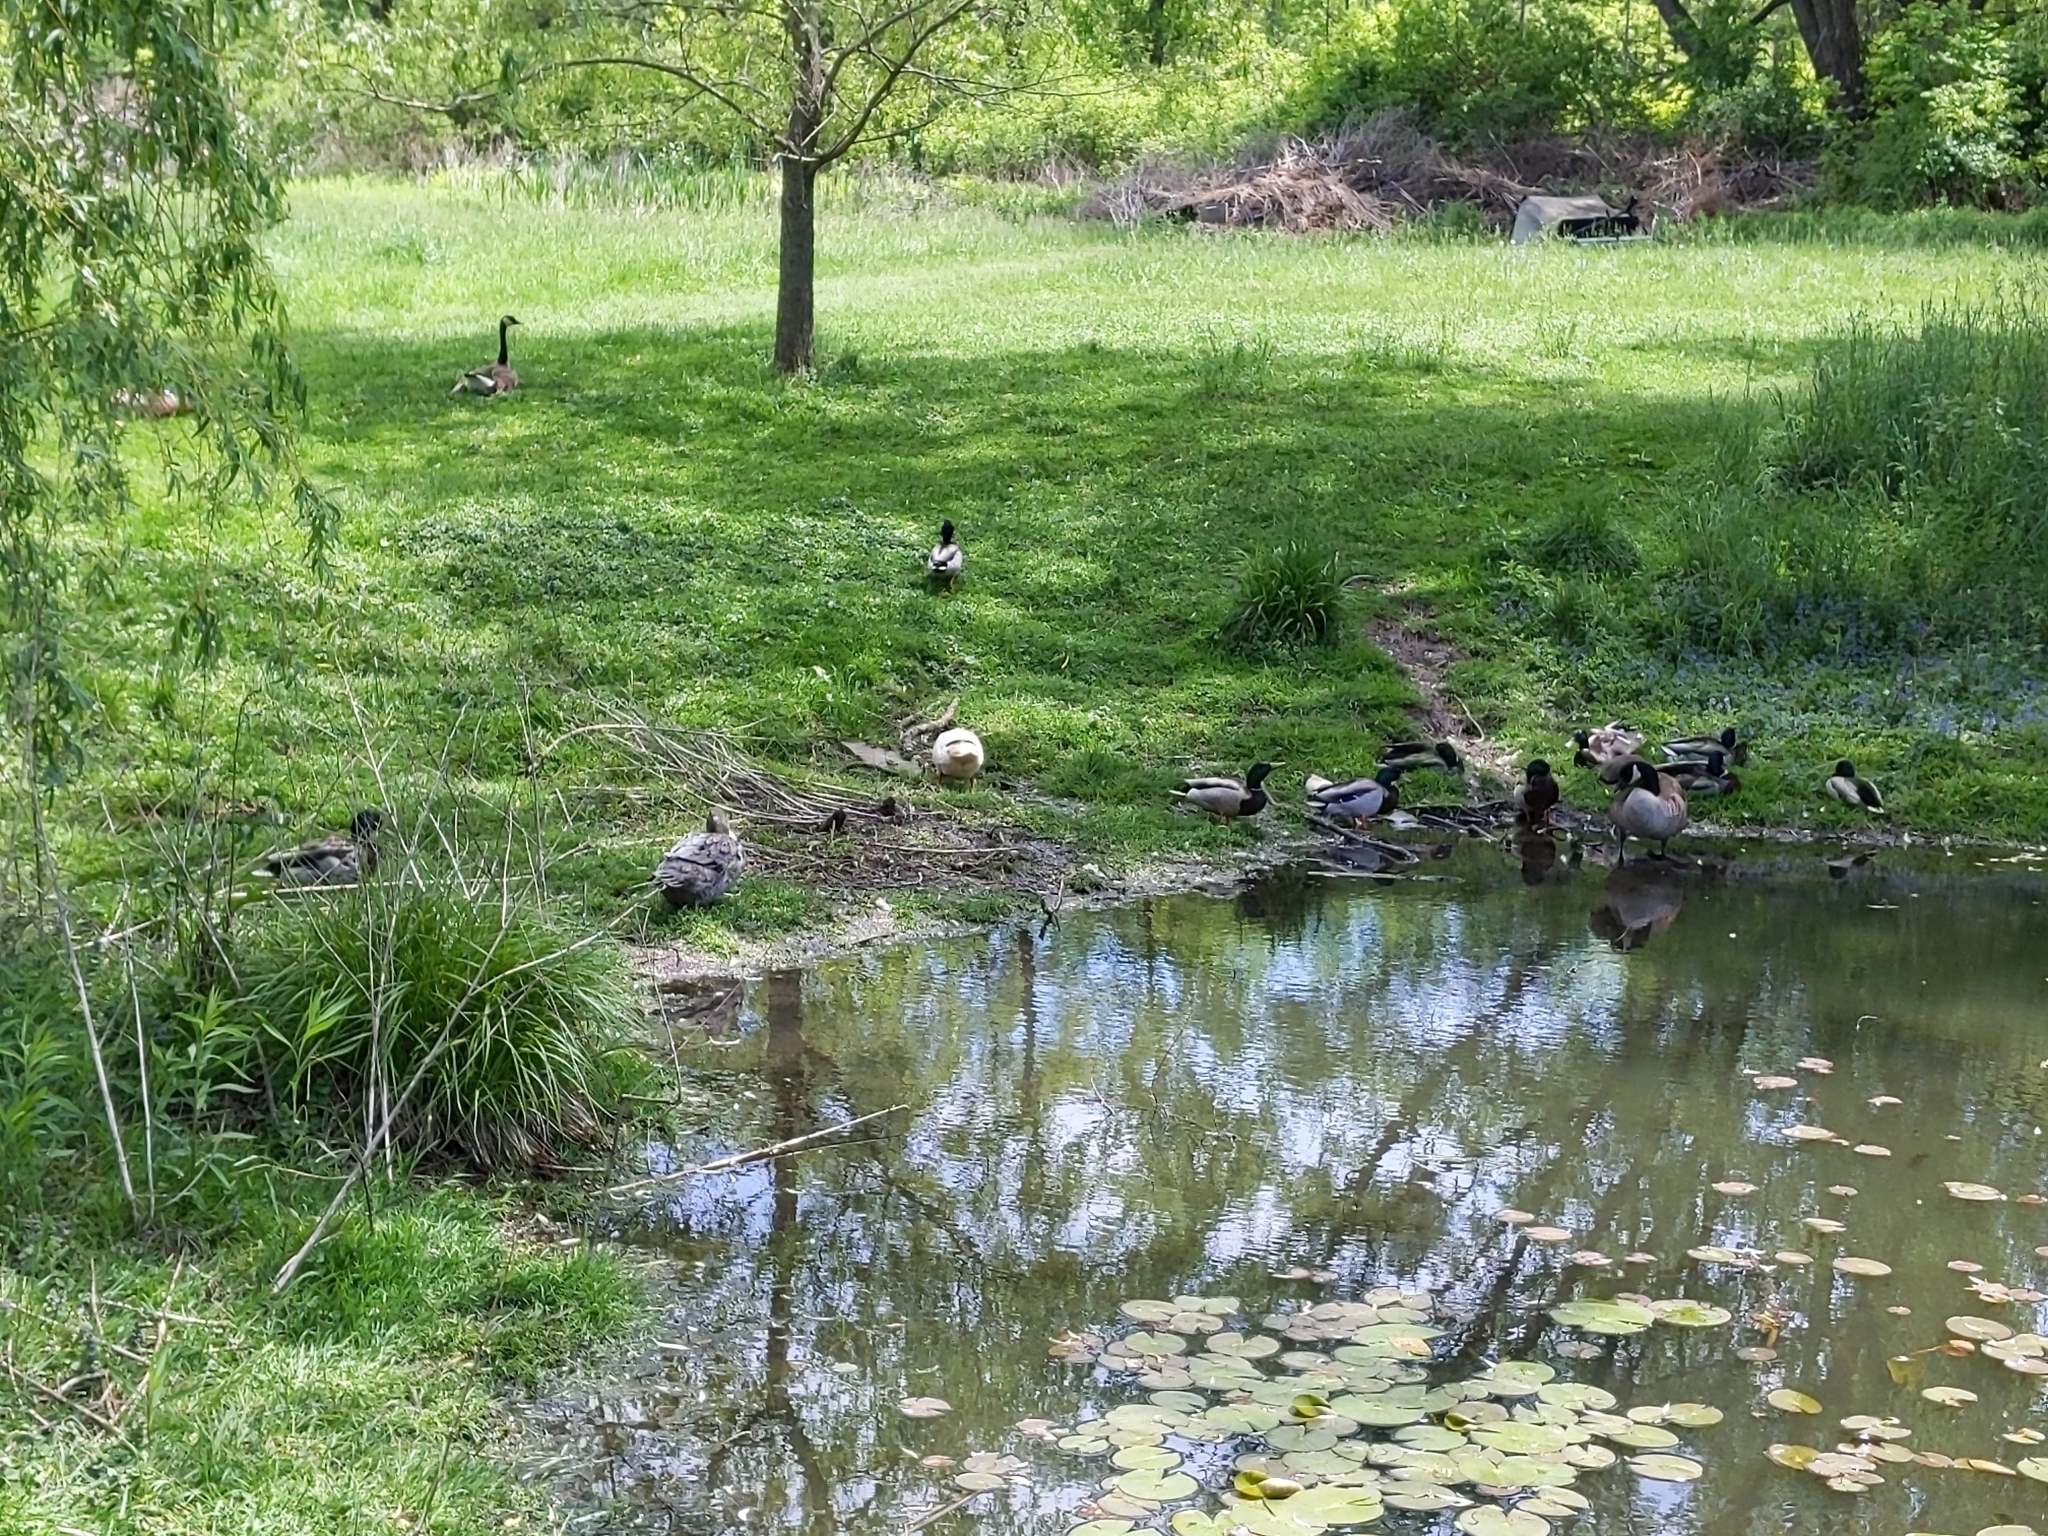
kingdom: Animalia
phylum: Chordata
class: Aves
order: Anseriformes
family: Anatidae
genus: Anas
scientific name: Anas platyrhynchos
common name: Mallard
